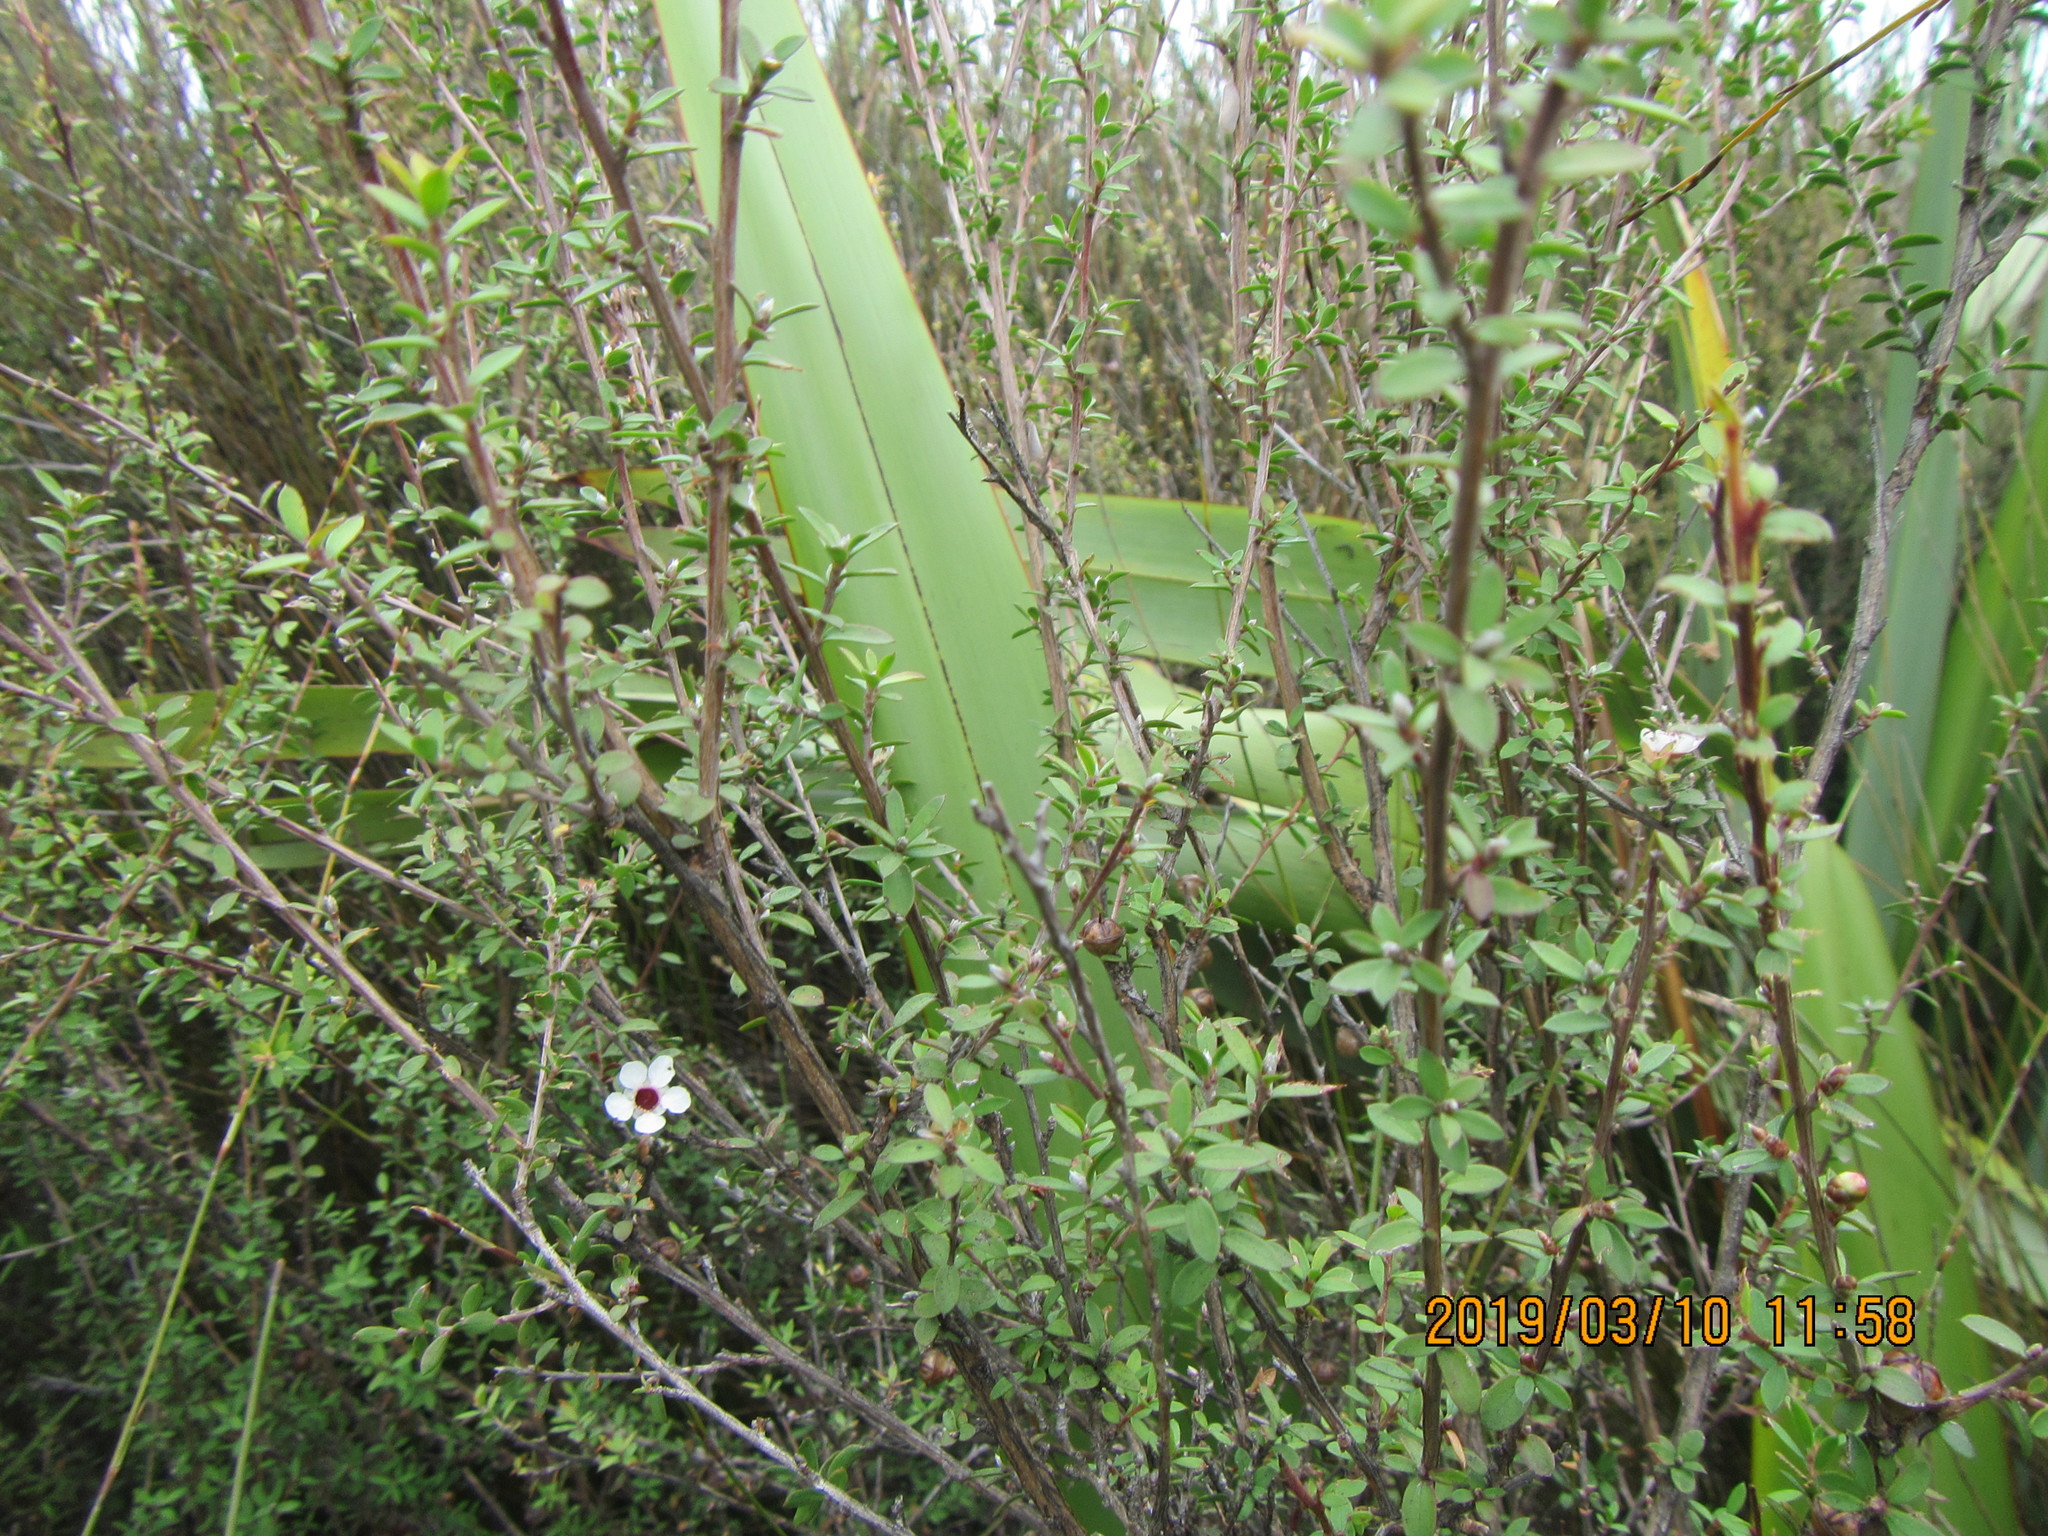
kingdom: Plantae
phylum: Tracheophyta
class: Magnoliopsida
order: Myrtales
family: Myrtaceae
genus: Leptospermum
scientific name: Leptospermum scoparium
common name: Broom tea-tree
